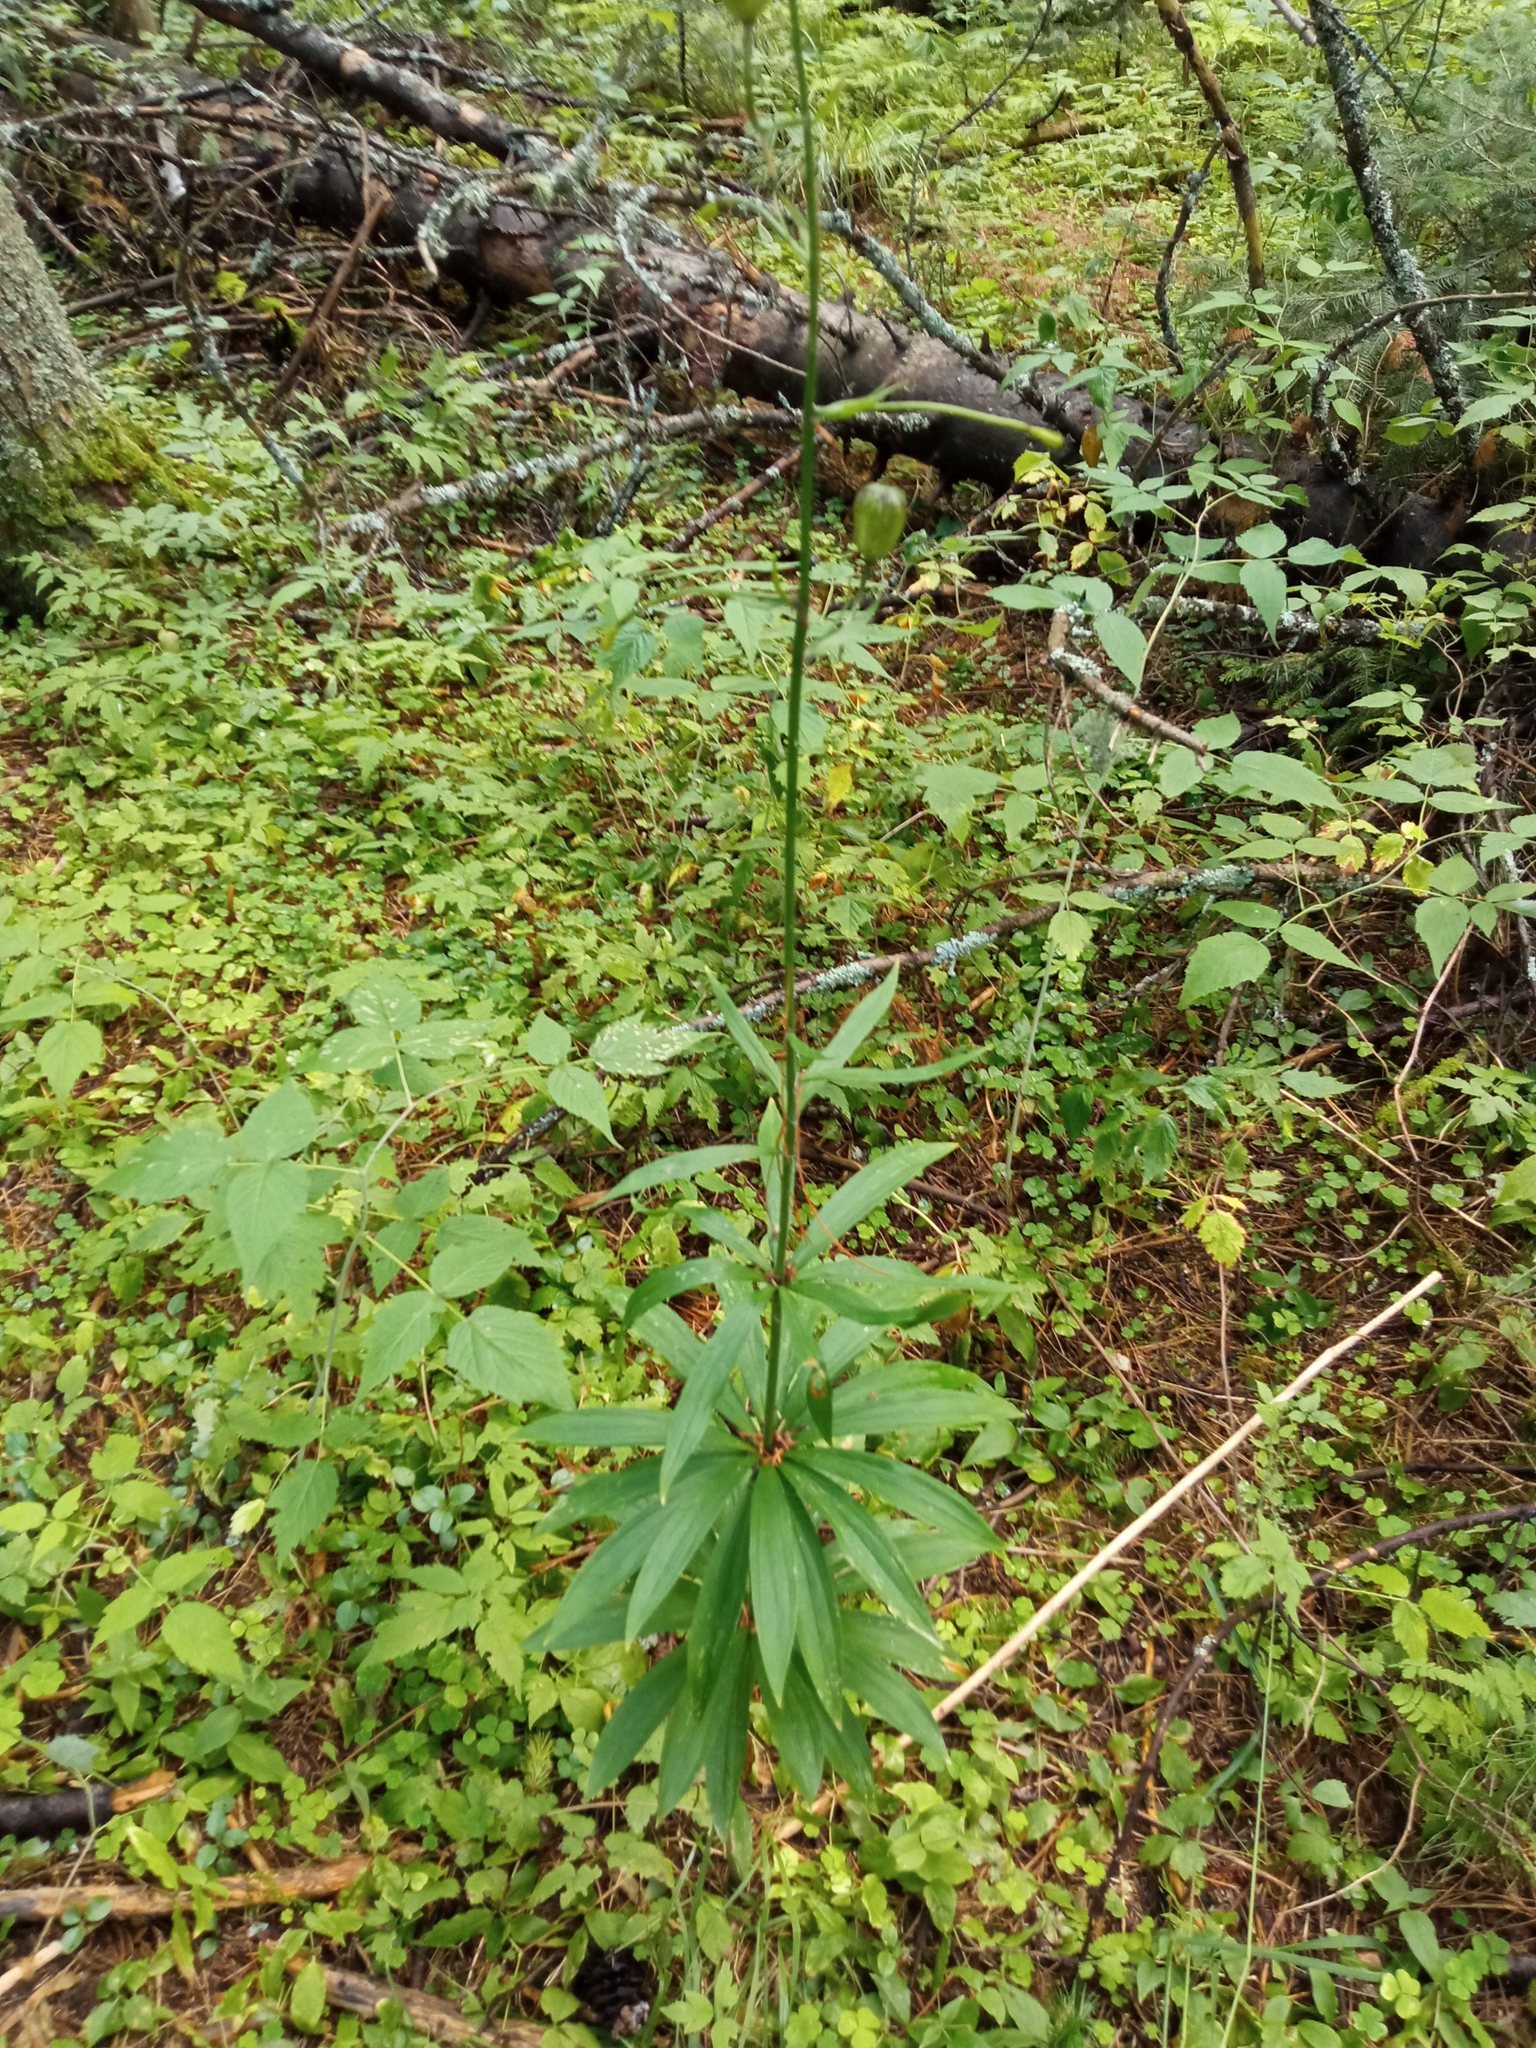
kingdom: Plantae
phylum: Tracheophyta
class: Liliopsida
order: Liliales
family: Liliaceae
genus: Lilium
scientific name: Lilium martagon
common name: Martagon lily
